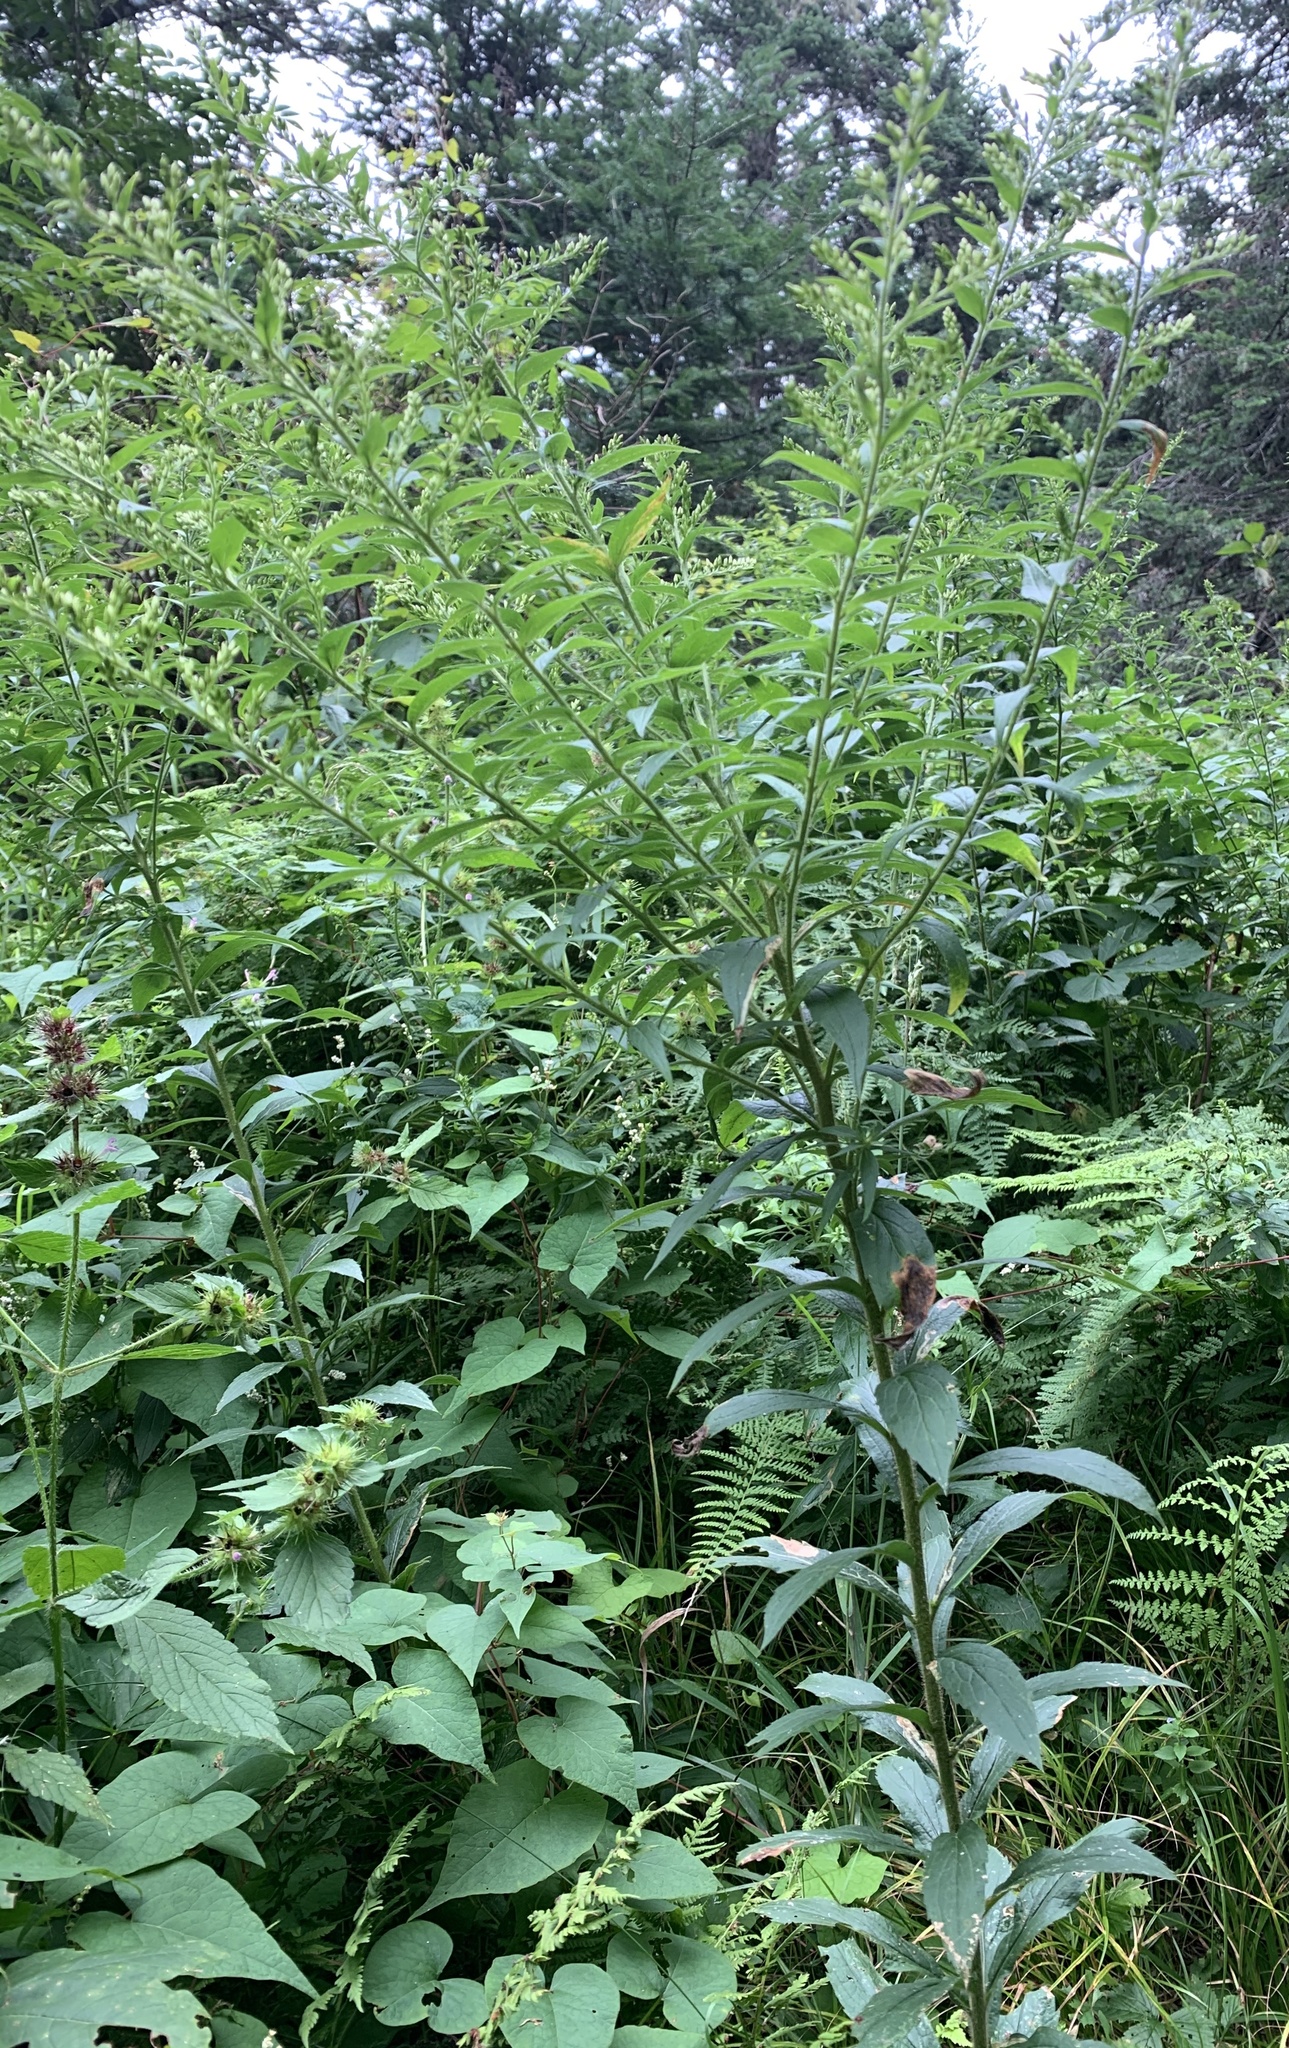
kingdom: Plantae
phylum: Tracheophyta
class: Magnoliopsida
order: Asterales
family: Asteraceae
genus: Solidago
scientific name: Solidago rugosa
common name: Rough-stemmed goldenrod
